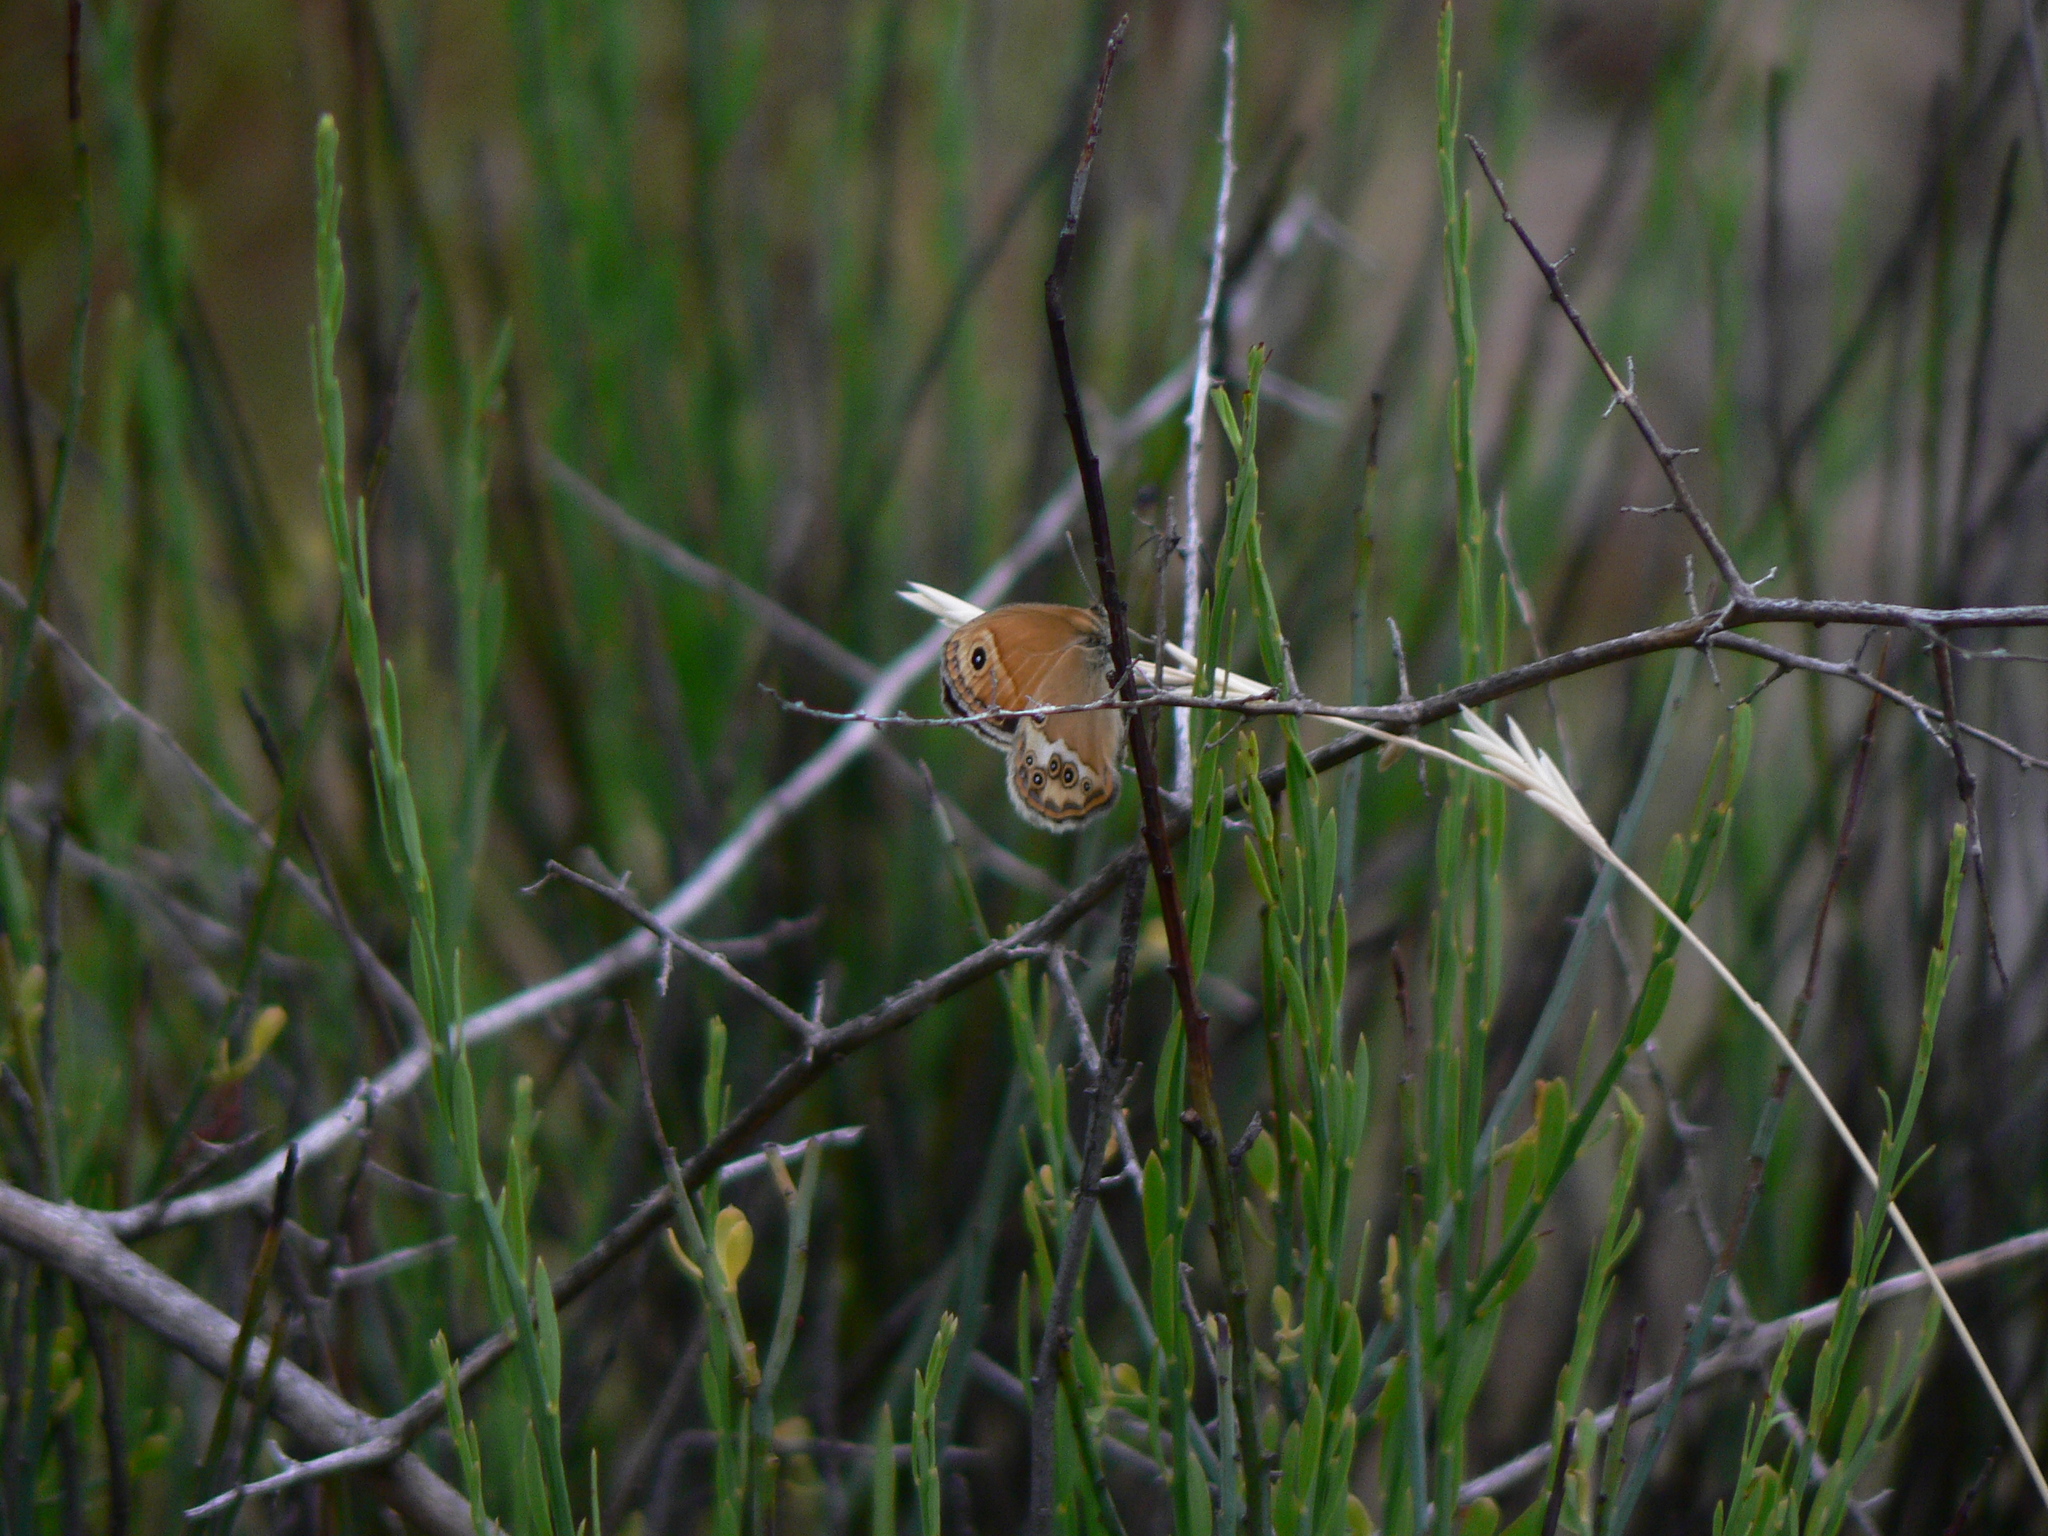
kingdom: Animalia
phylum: Arthropoda
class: Insecta
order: Lepidoptera
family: Nymphalidae
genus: Coenonympha
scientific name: Coenonympha dorus
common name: Dusky heath
